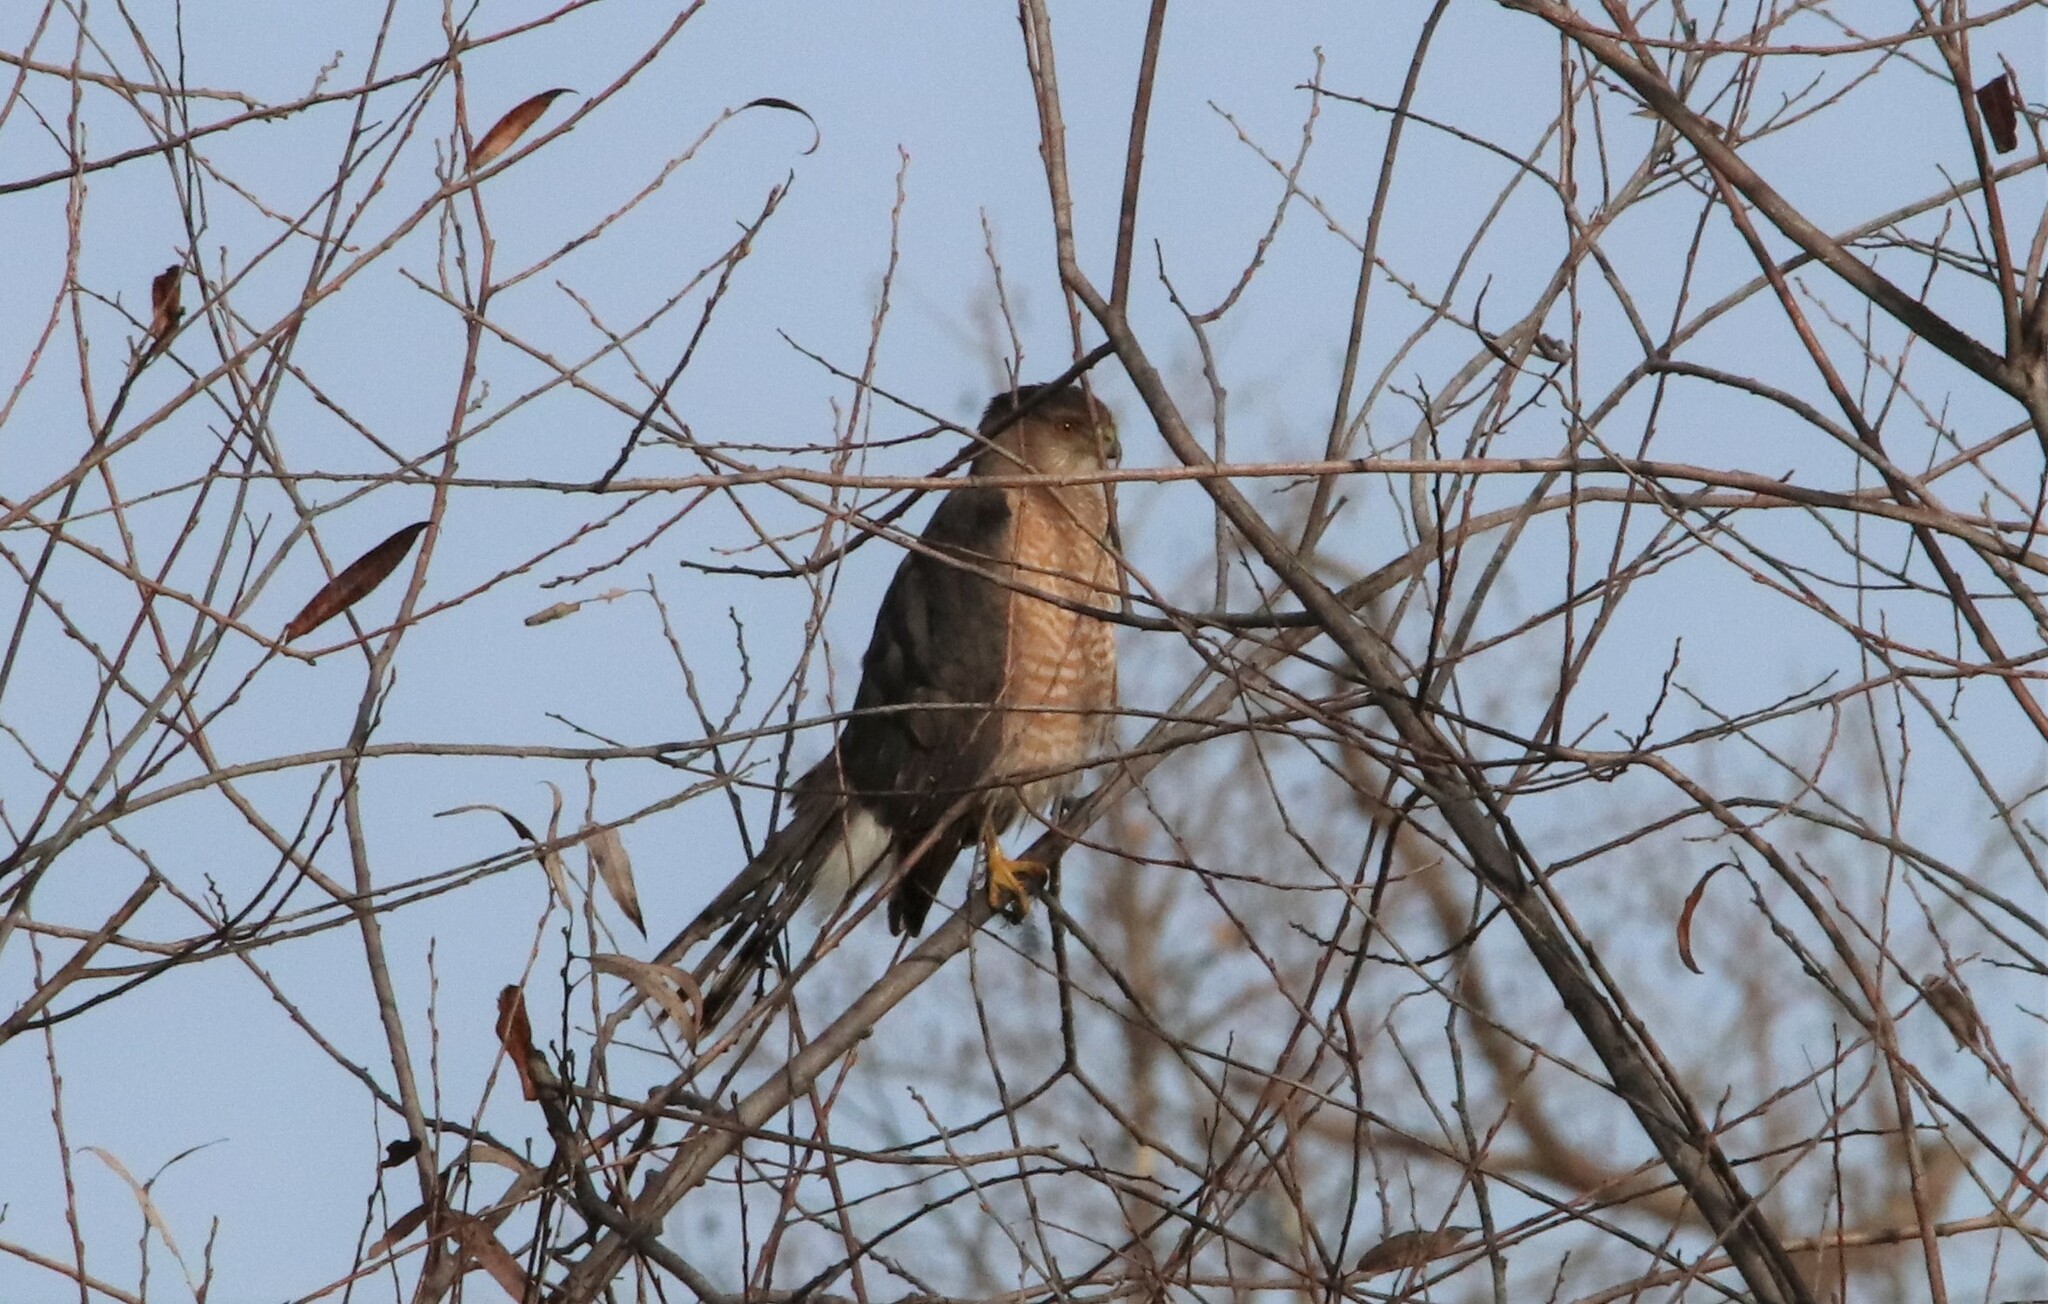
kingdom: Animalia
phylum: Chordata
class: Aves
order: Accipitriformes
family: Accipitridae
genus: Accipiter
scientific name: Accipiter cooperii
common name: Cooper's hawk
